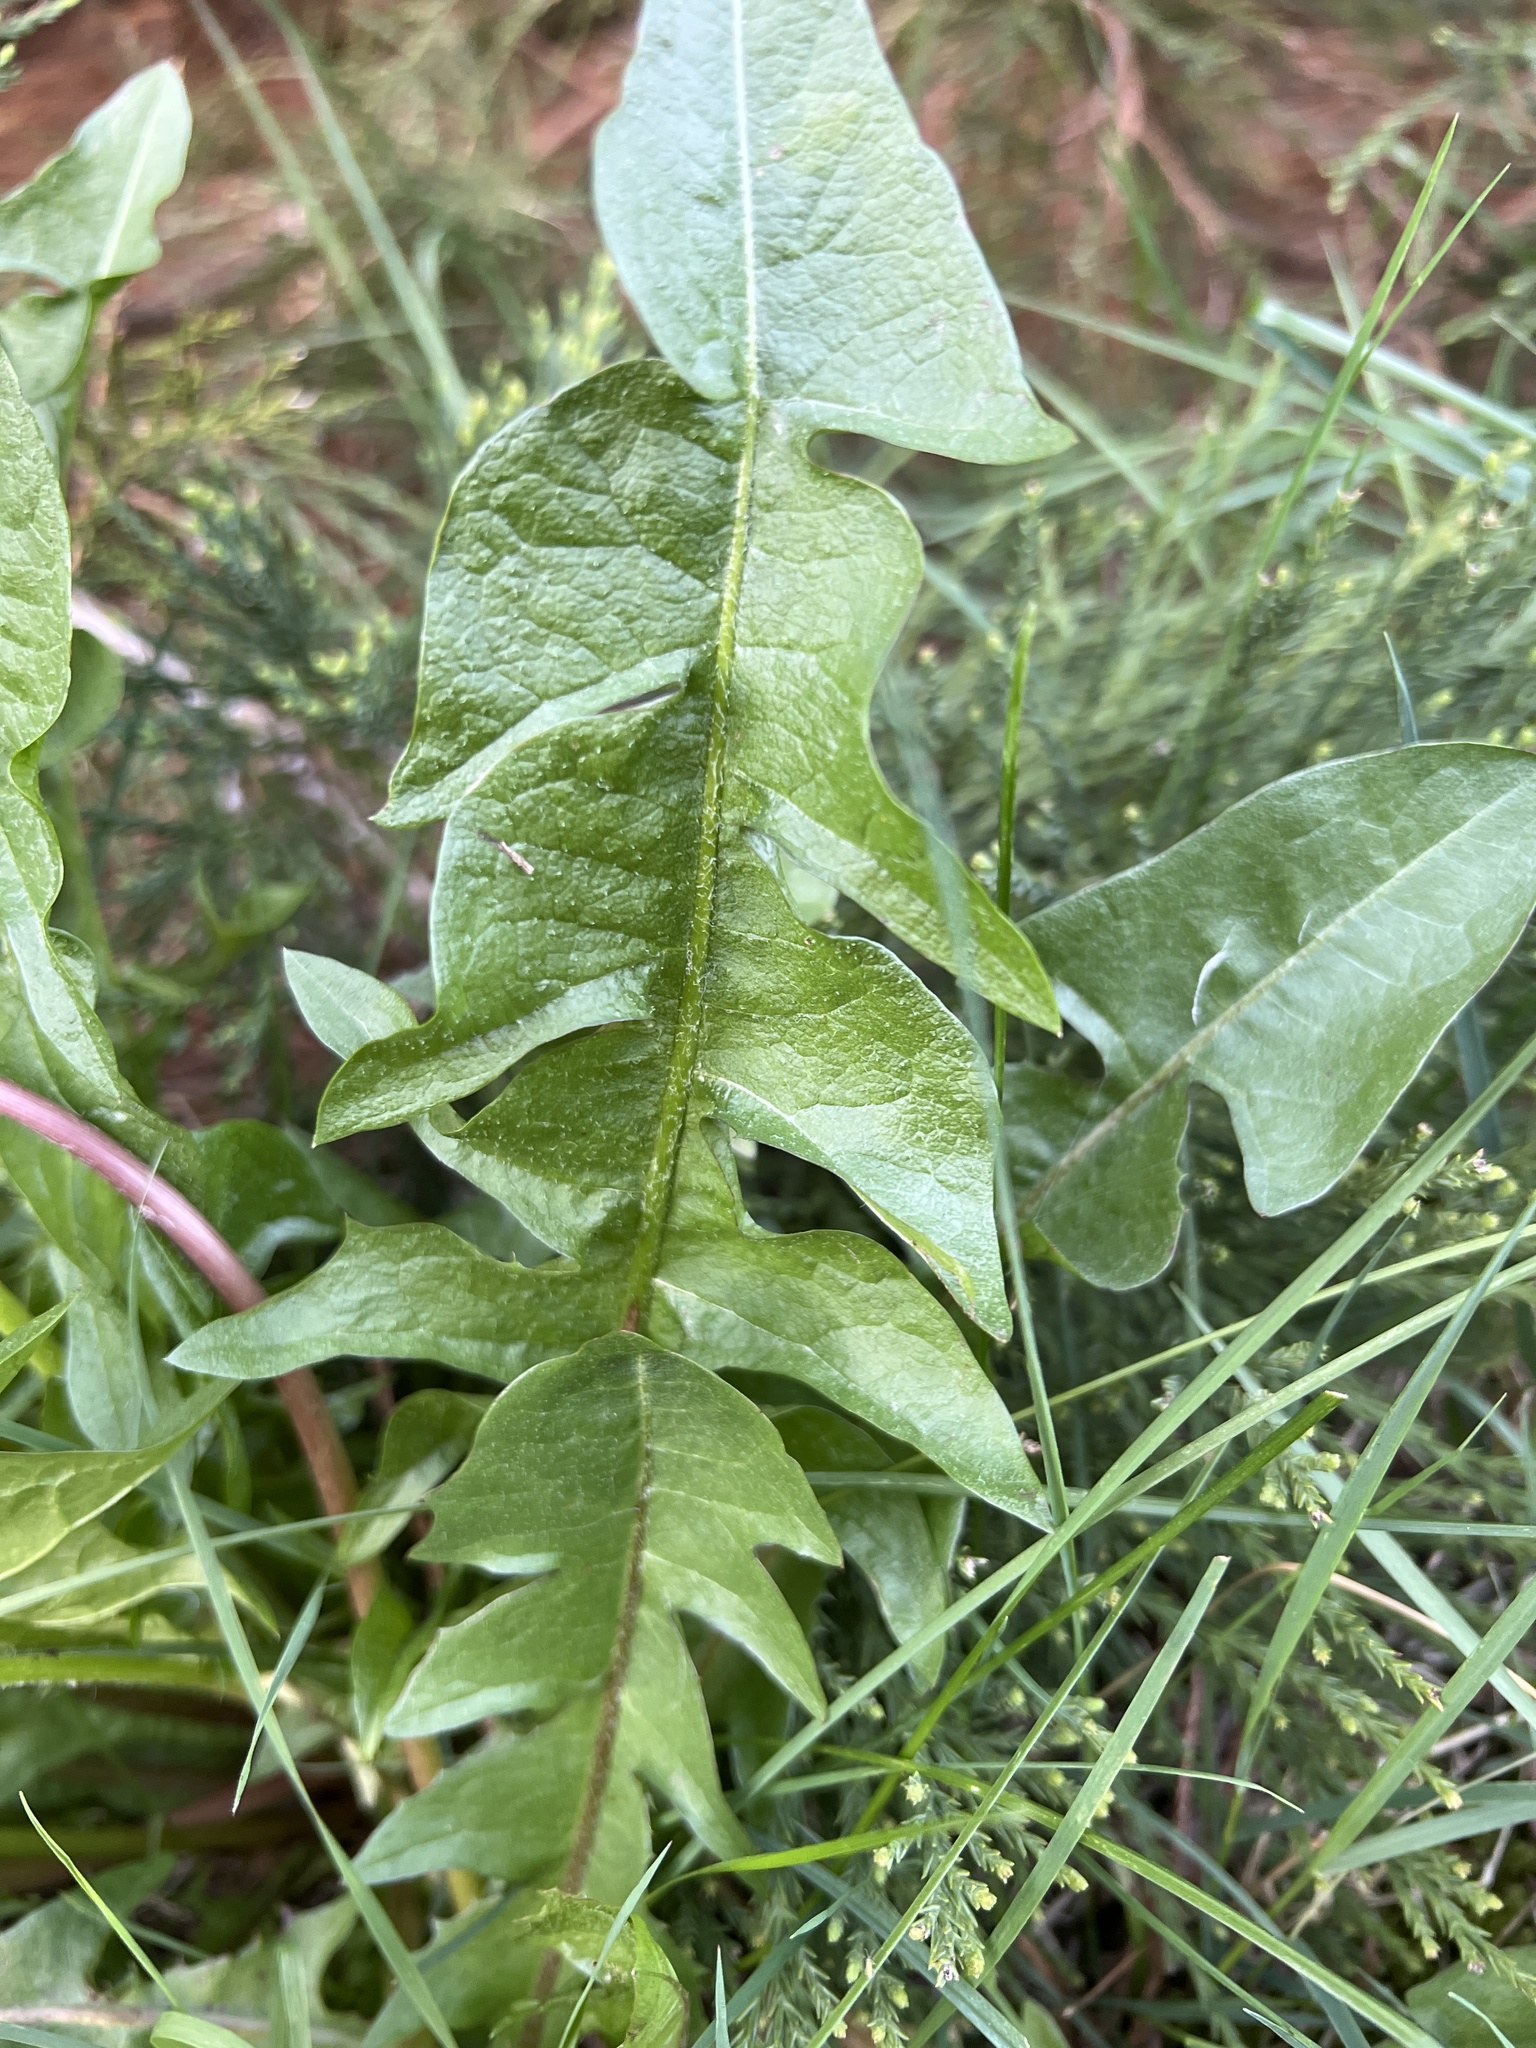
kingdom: Plantae
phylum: Tracheophyta
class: Magnoliopsida
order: Asterales
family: Asteraceae
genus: Taraxacum
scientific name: Taraxacum officinale
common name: Common dandelion
